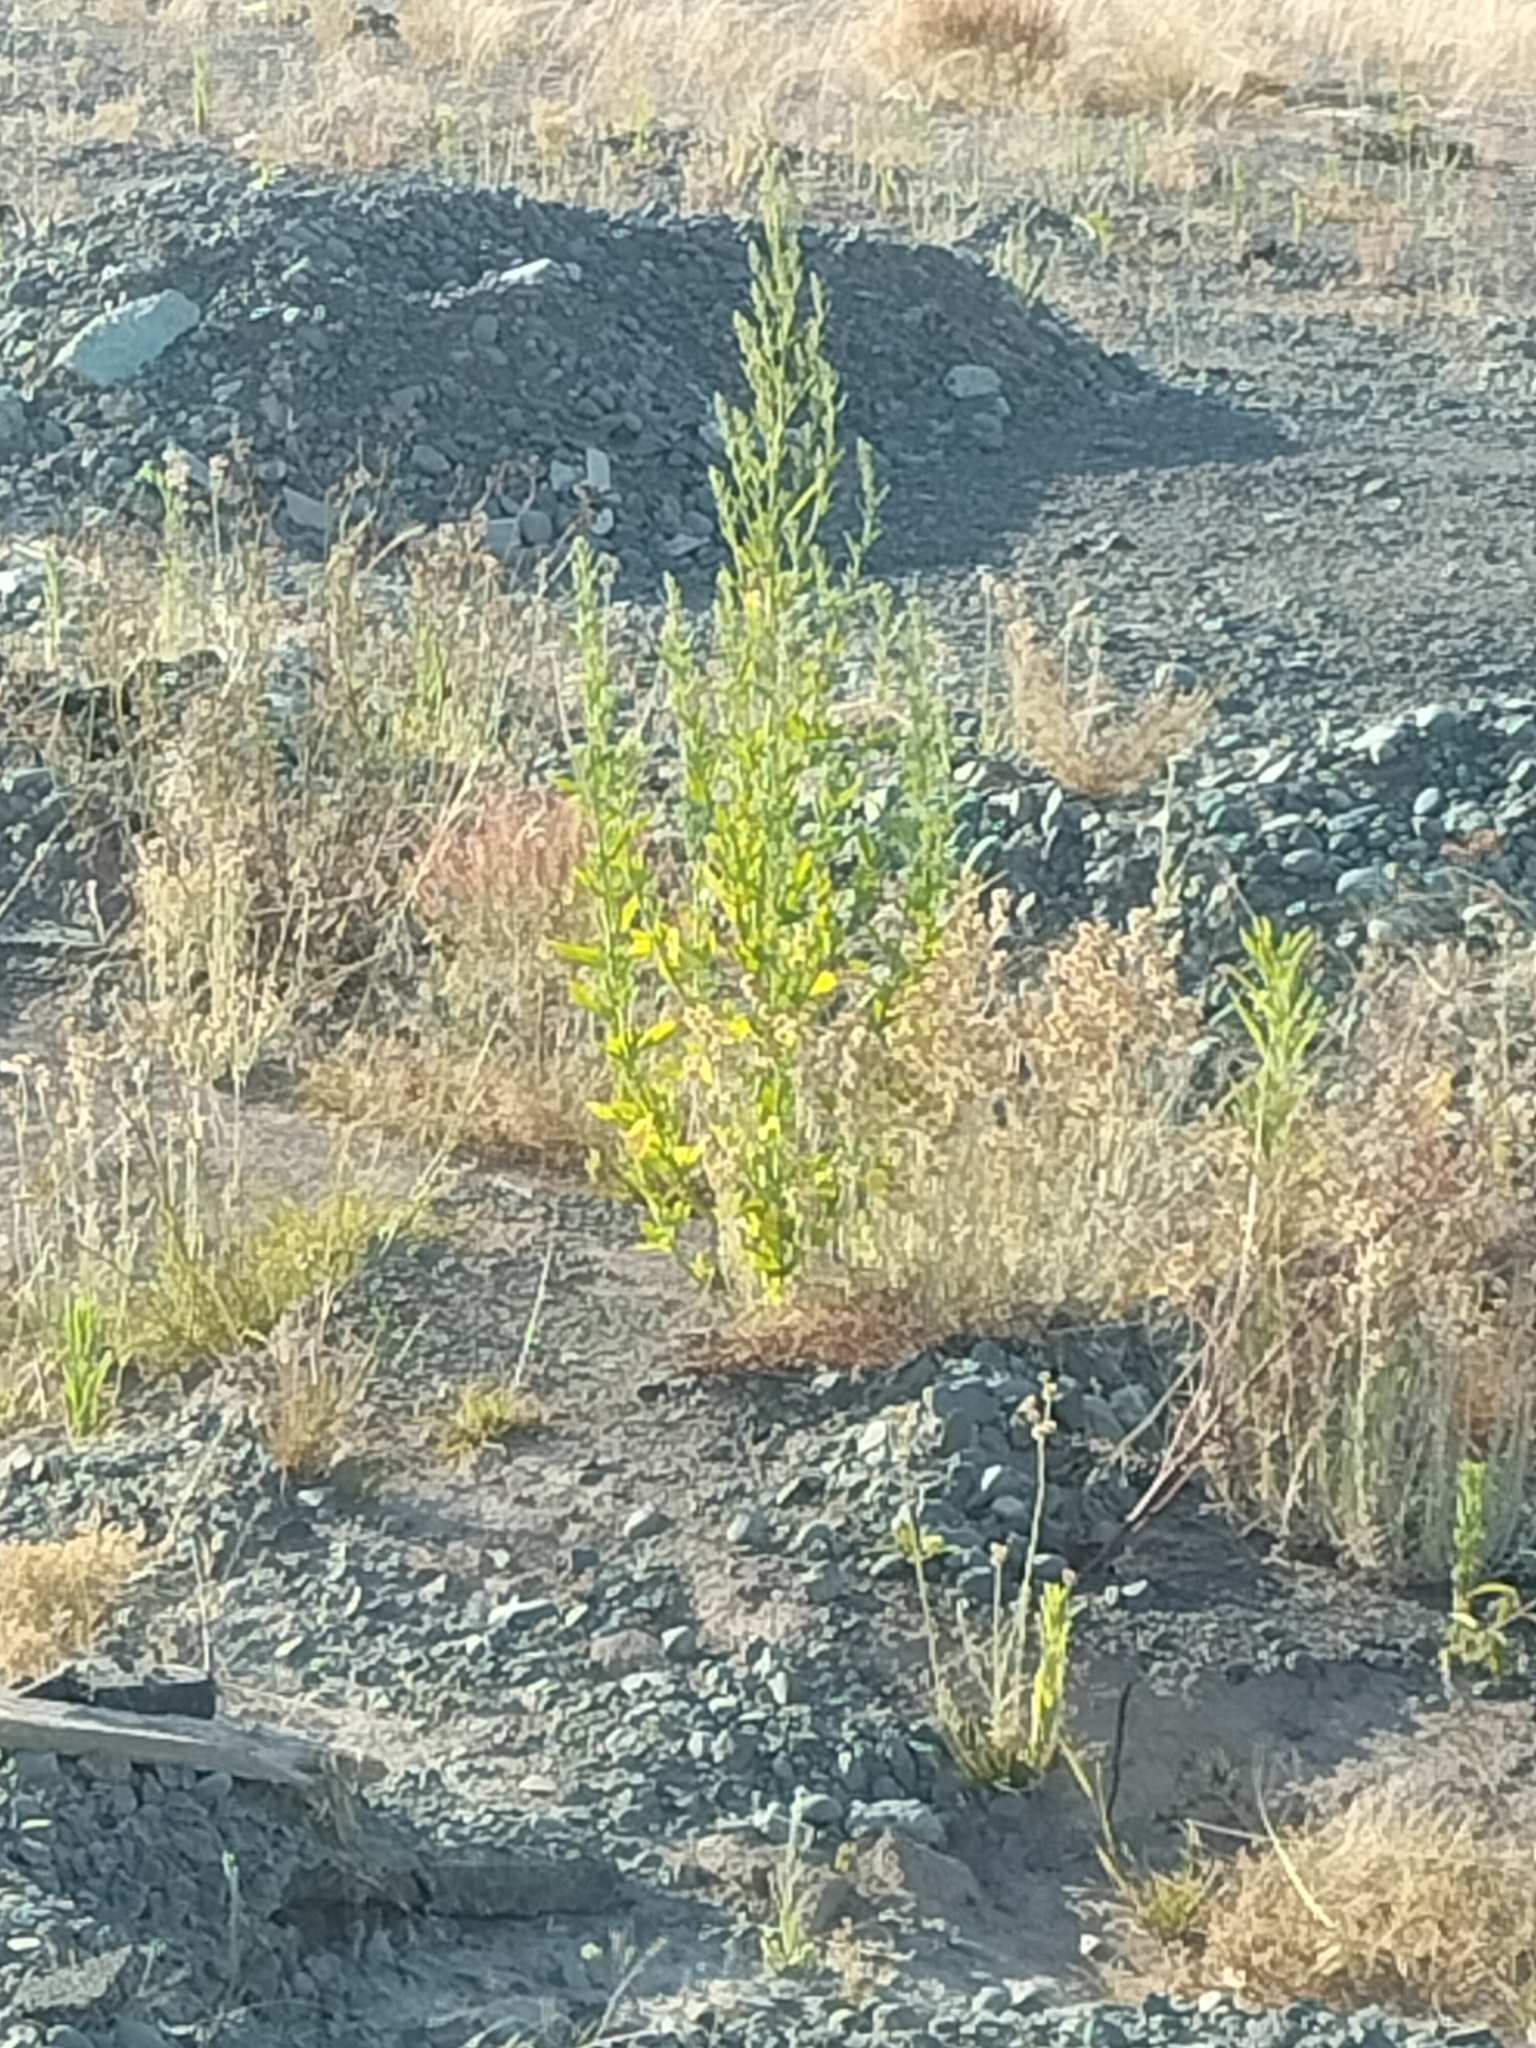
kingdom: Plantae
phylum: Tracheophyta
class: Magnoliopsida
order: Caryophyllales
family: Amaranthaceae
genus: Chenopodium
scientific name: Chenopodium album
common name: Fat-hen
